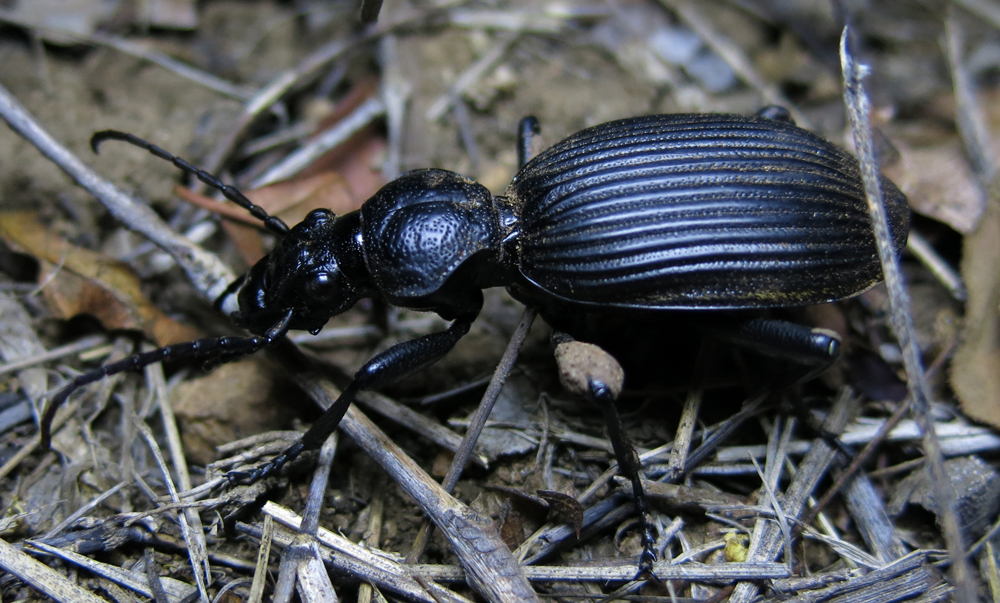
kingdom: Animalia
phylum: Arthropoda
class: Insecta
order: Coleoptera
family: Carabidae
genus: Anthia
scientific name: Anthia fornasinii
